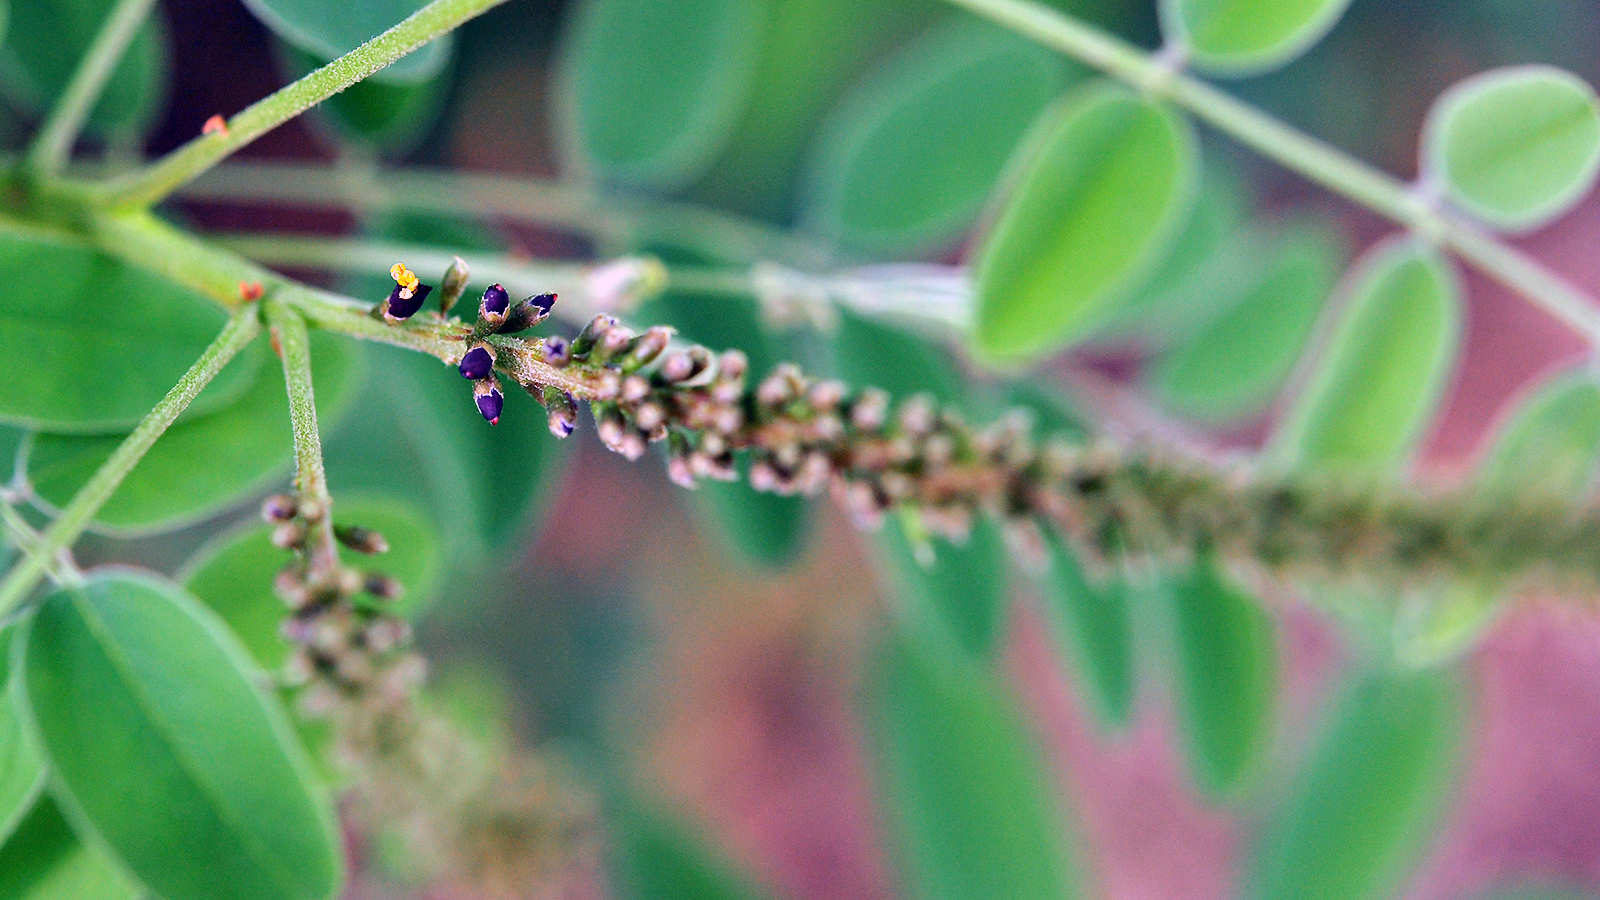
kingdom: Plantae
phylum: Tracheophyta
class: Magnoliopsida
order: Fabales
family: Fabaceae
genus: Amorpha
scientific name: Amorpha fruticosa
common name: False indigo
